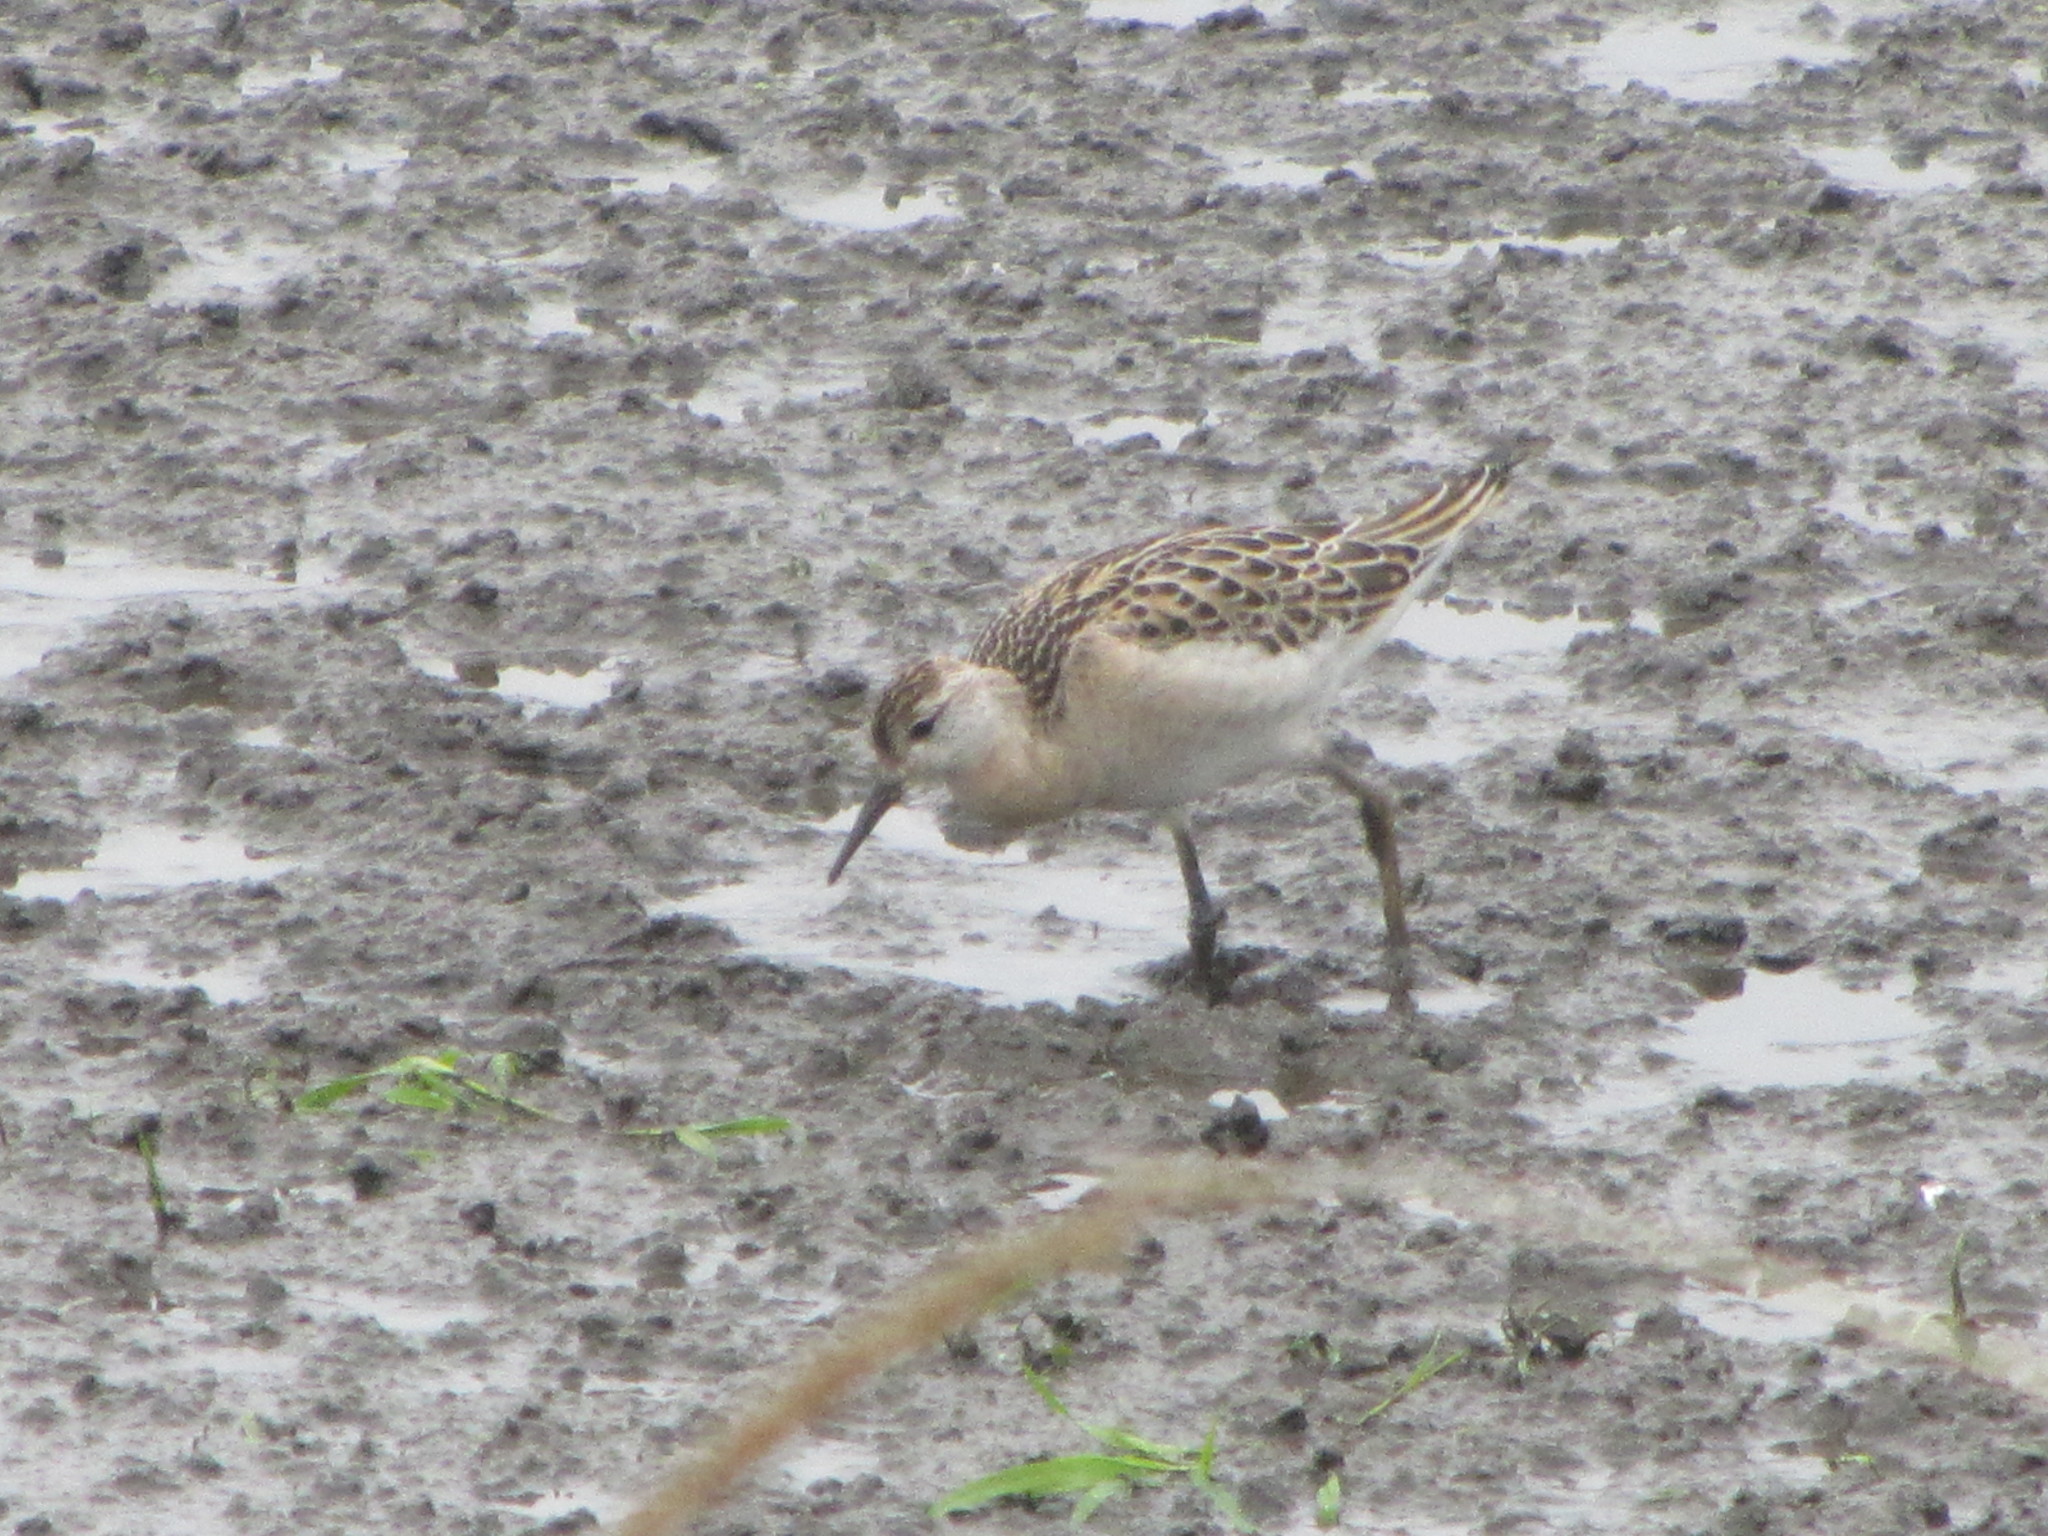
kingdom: Animalia
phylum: Chordata
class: Aves
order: Charadriiformes
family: Scolopacidae
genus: Calidris
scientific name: Calidris pugnax
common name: Ruff
